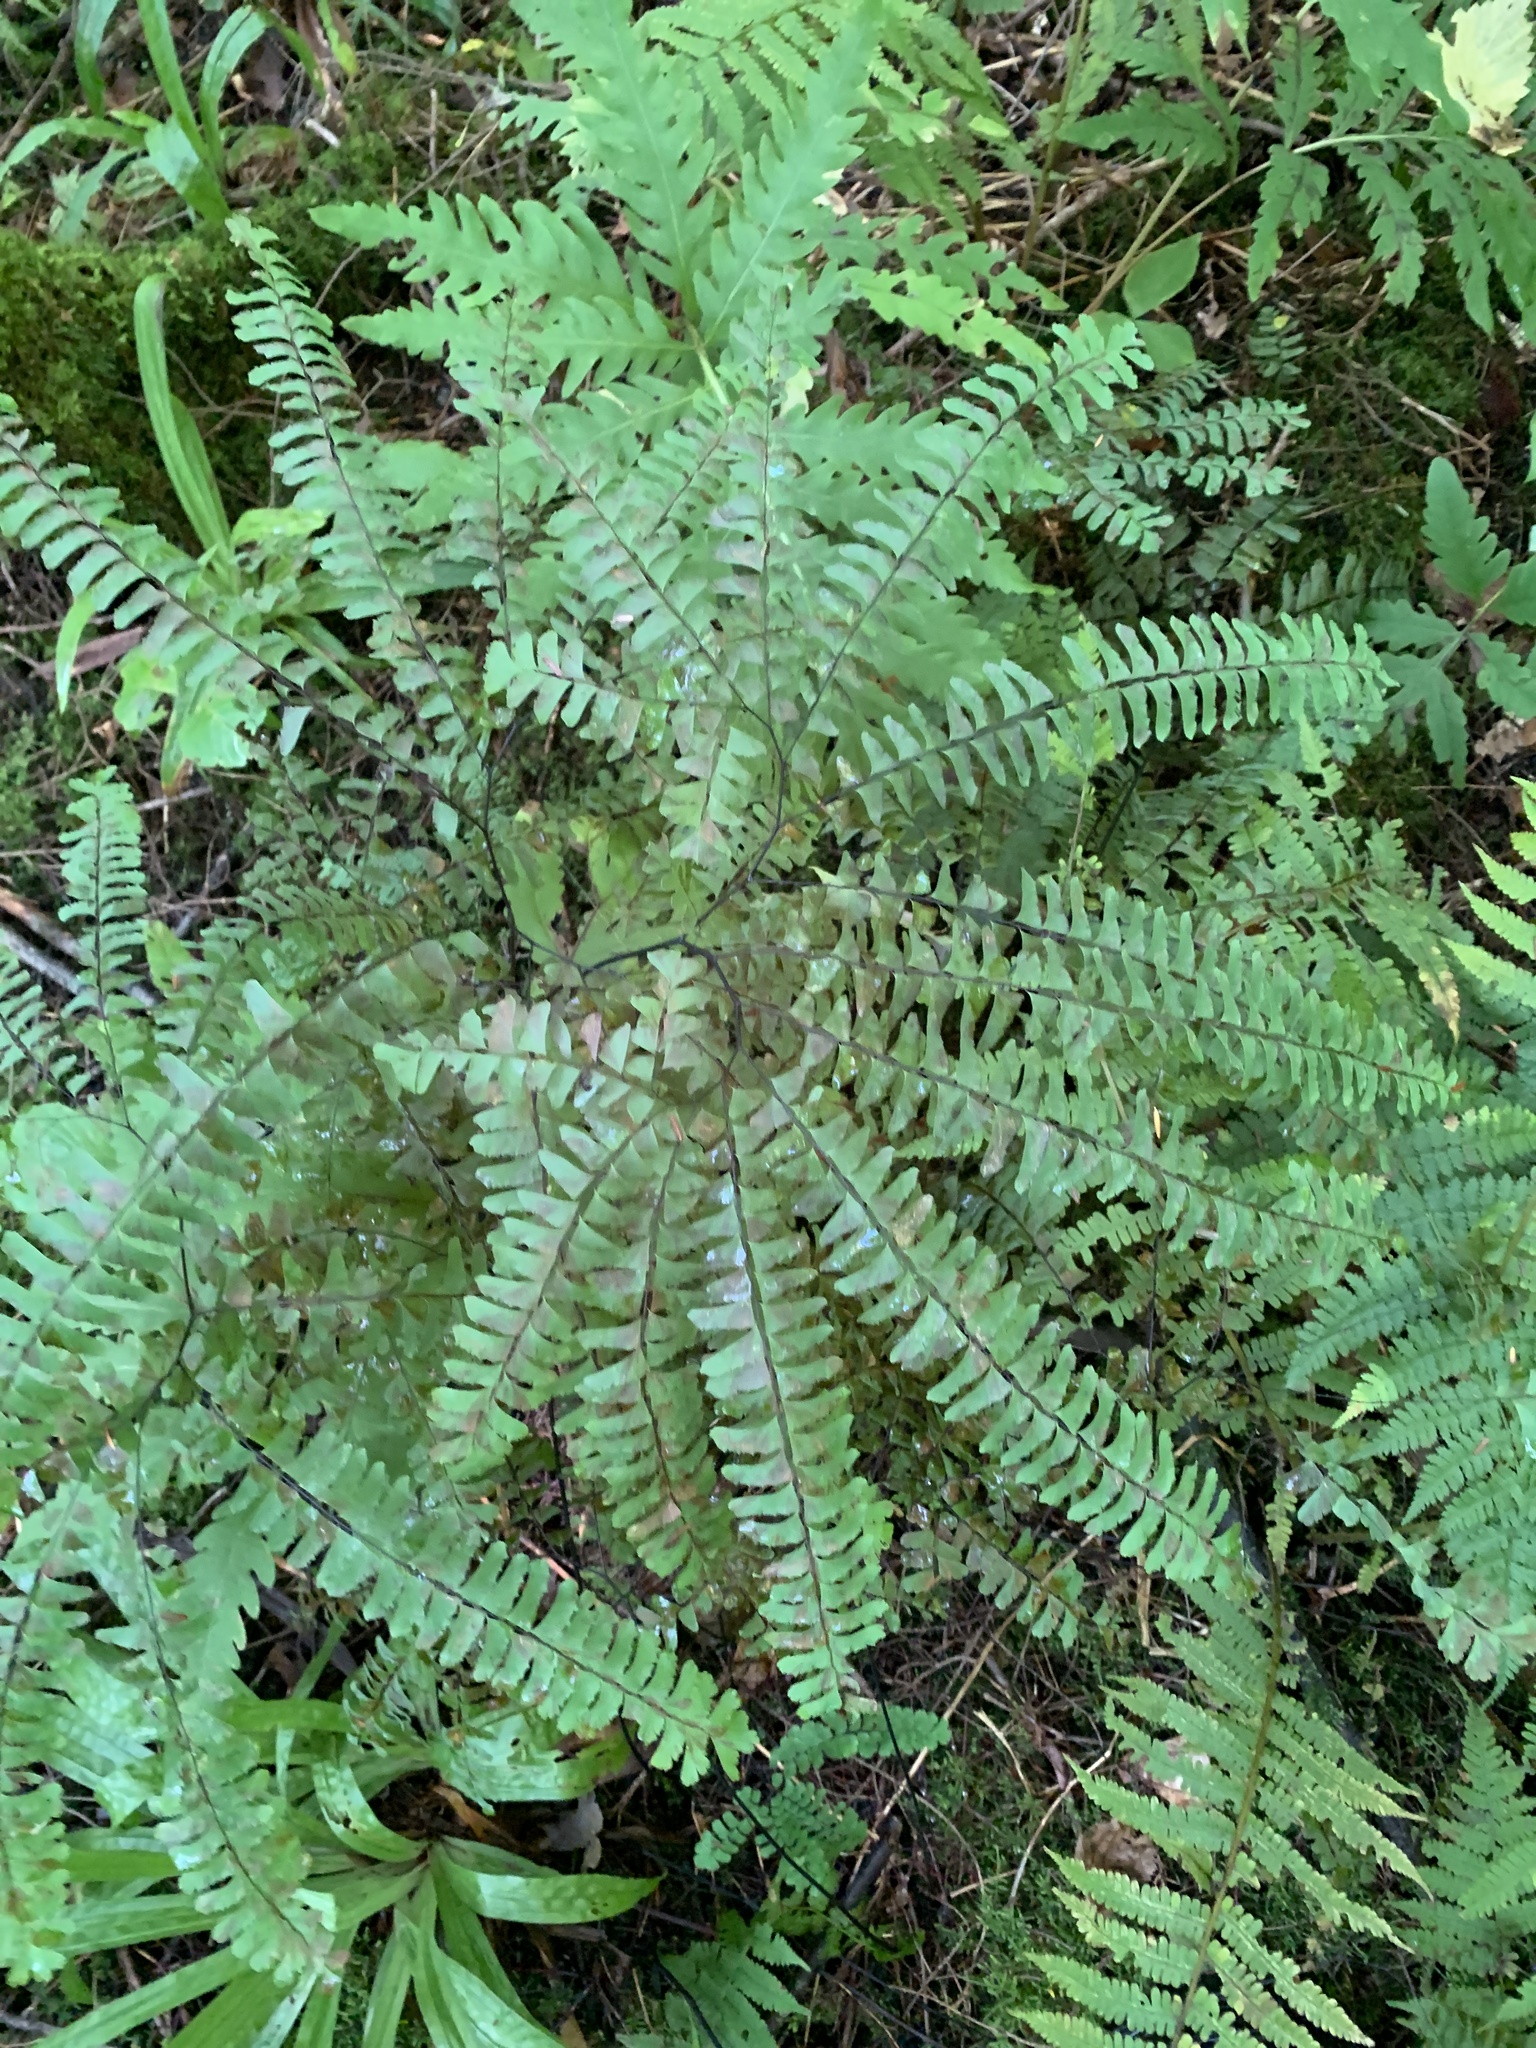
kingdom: Plantae
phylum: Tracheophyta
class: Polypodiopsida
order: Polypodiales
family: Pteridaceae
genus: Adiantum
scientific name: Adiantum pedatum
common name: Five-finger fern
